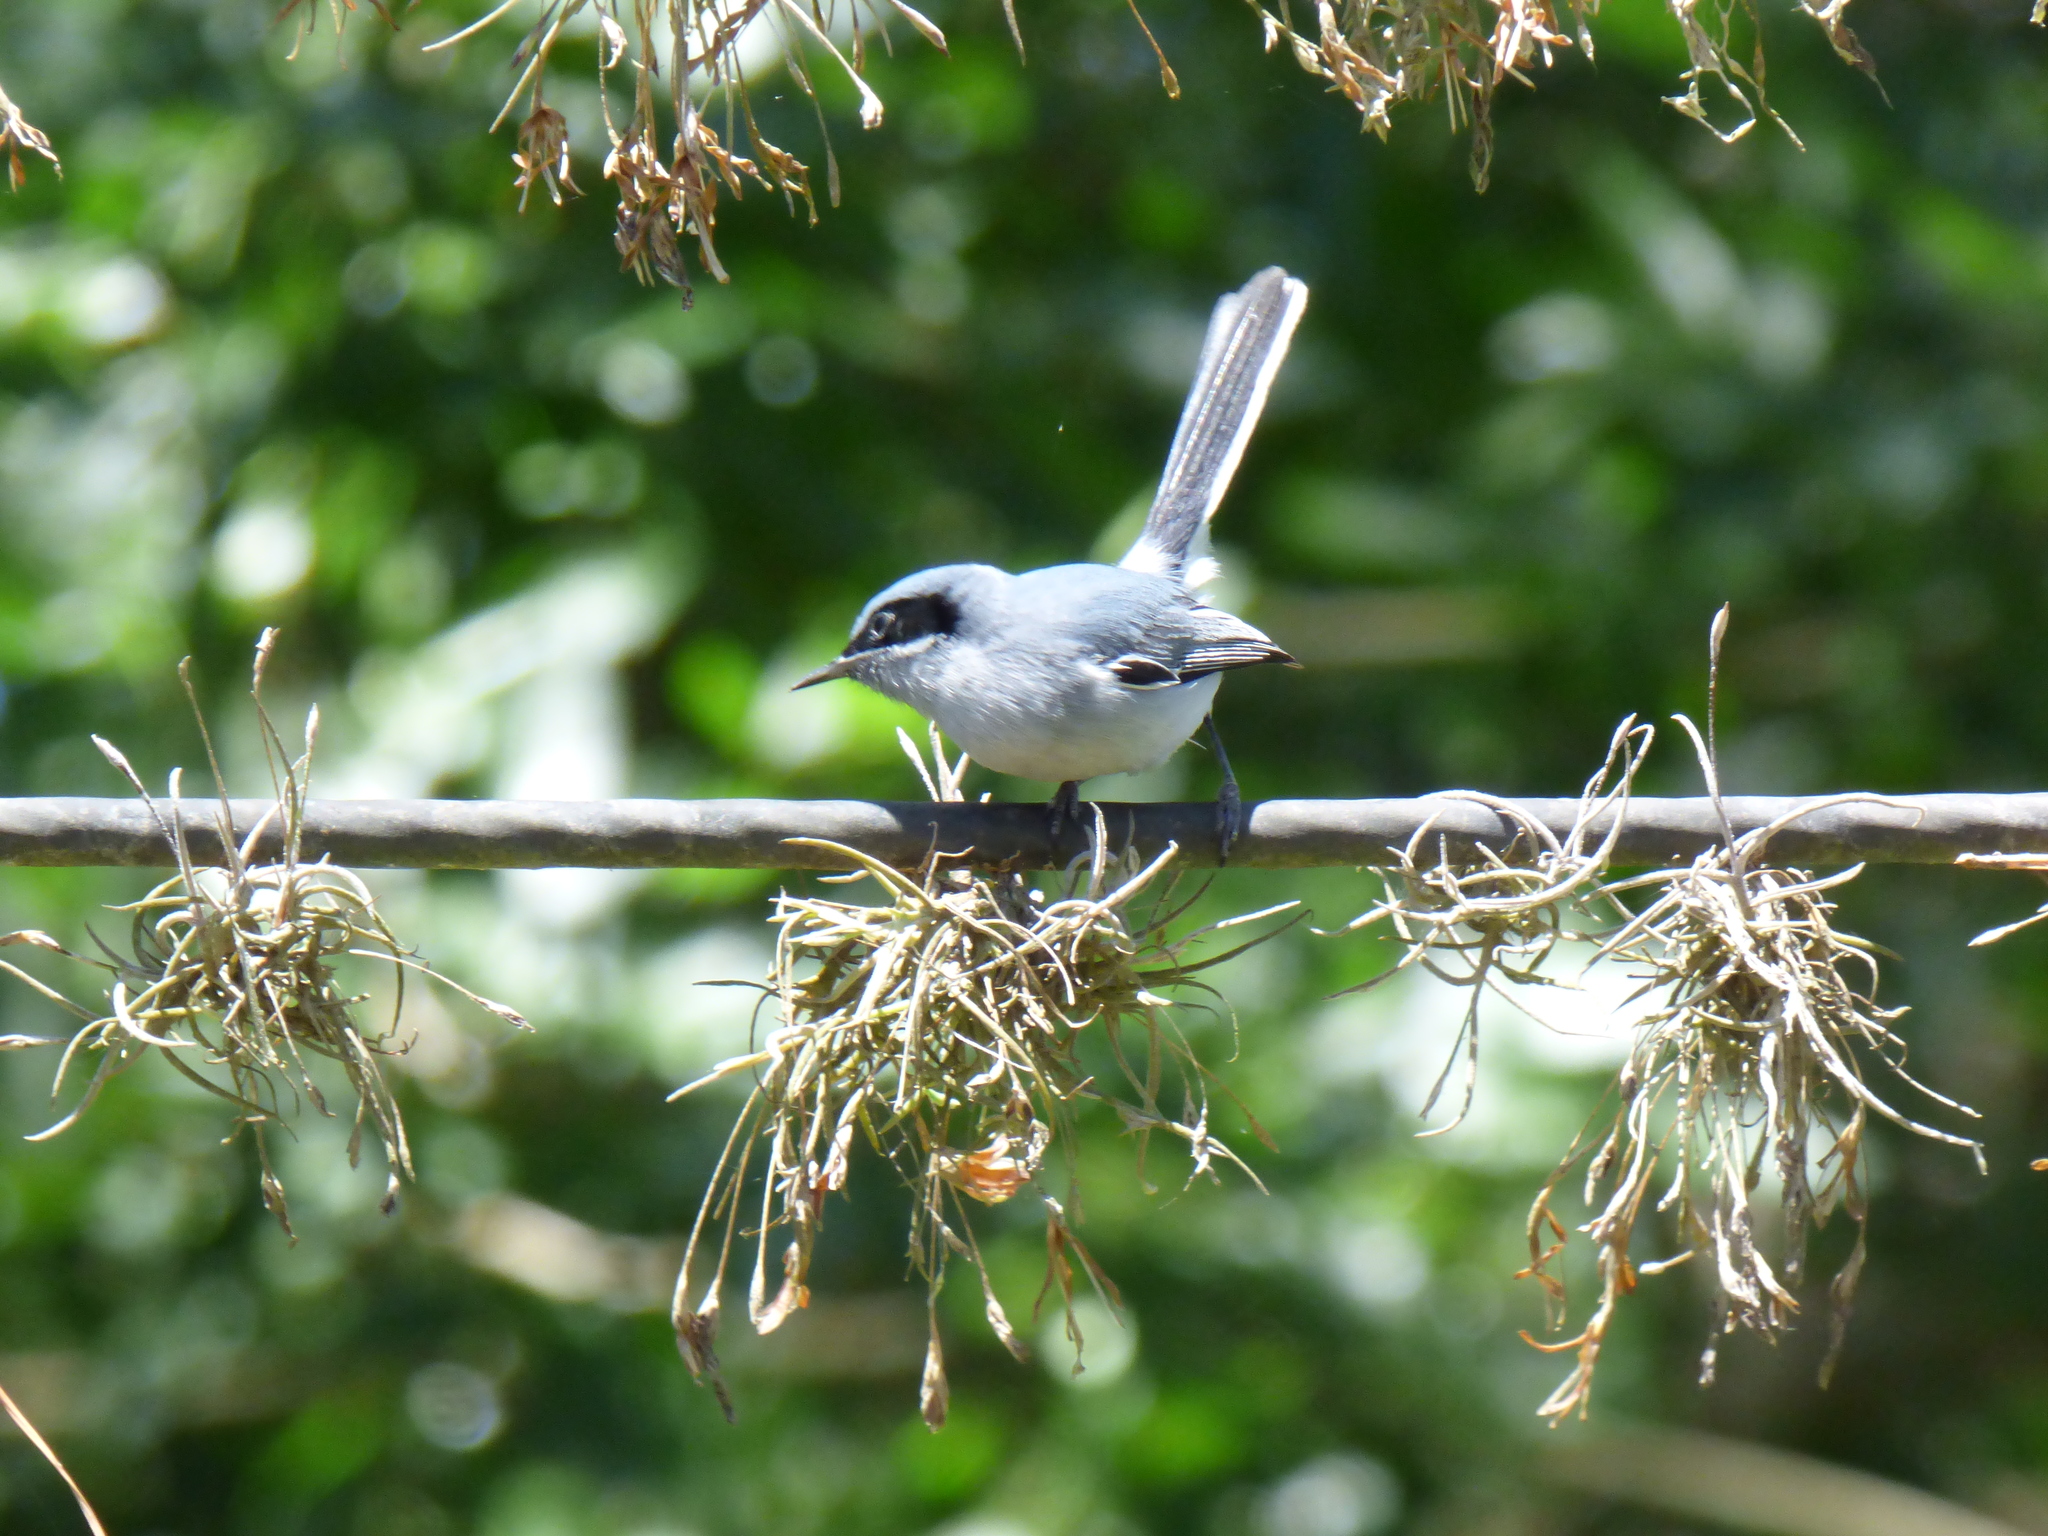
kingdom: Animalia
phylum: Chordata
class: Aves
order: Passeriformes
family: Polioptilidae
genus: Polioptila
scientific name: Polioptila dumicola
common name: Masked gnatcatcher
